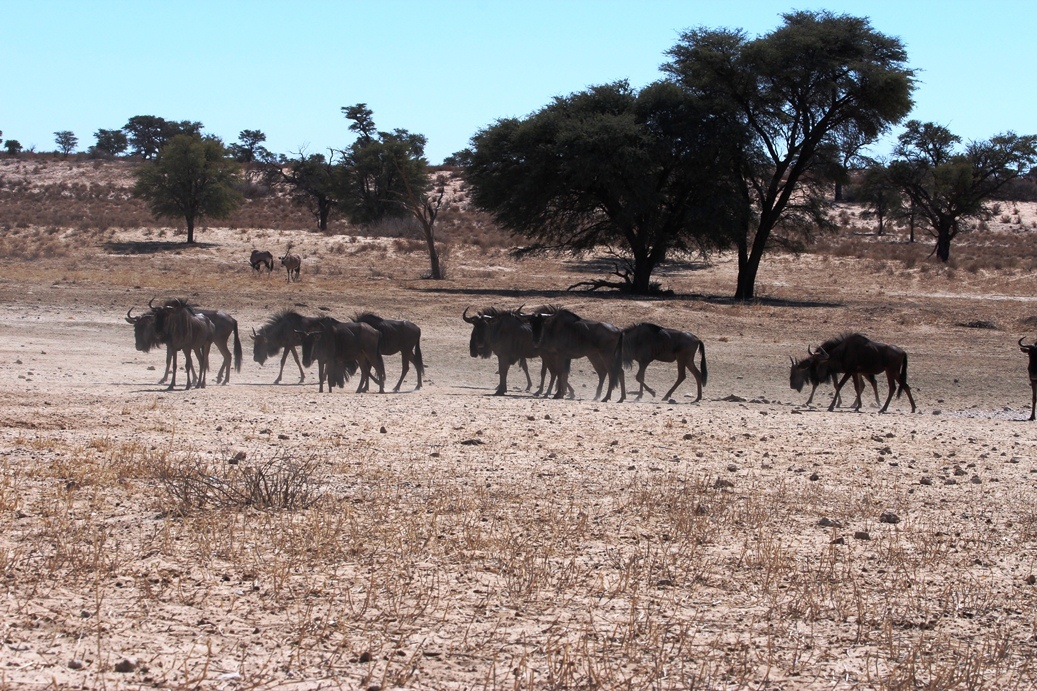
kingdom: Animalia
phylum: Chordata
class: Mammalia
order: Artiodactyla
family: Bovidae
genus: Connochaetes
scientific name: Connochaetes taurinus
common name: Blue wildebeest
